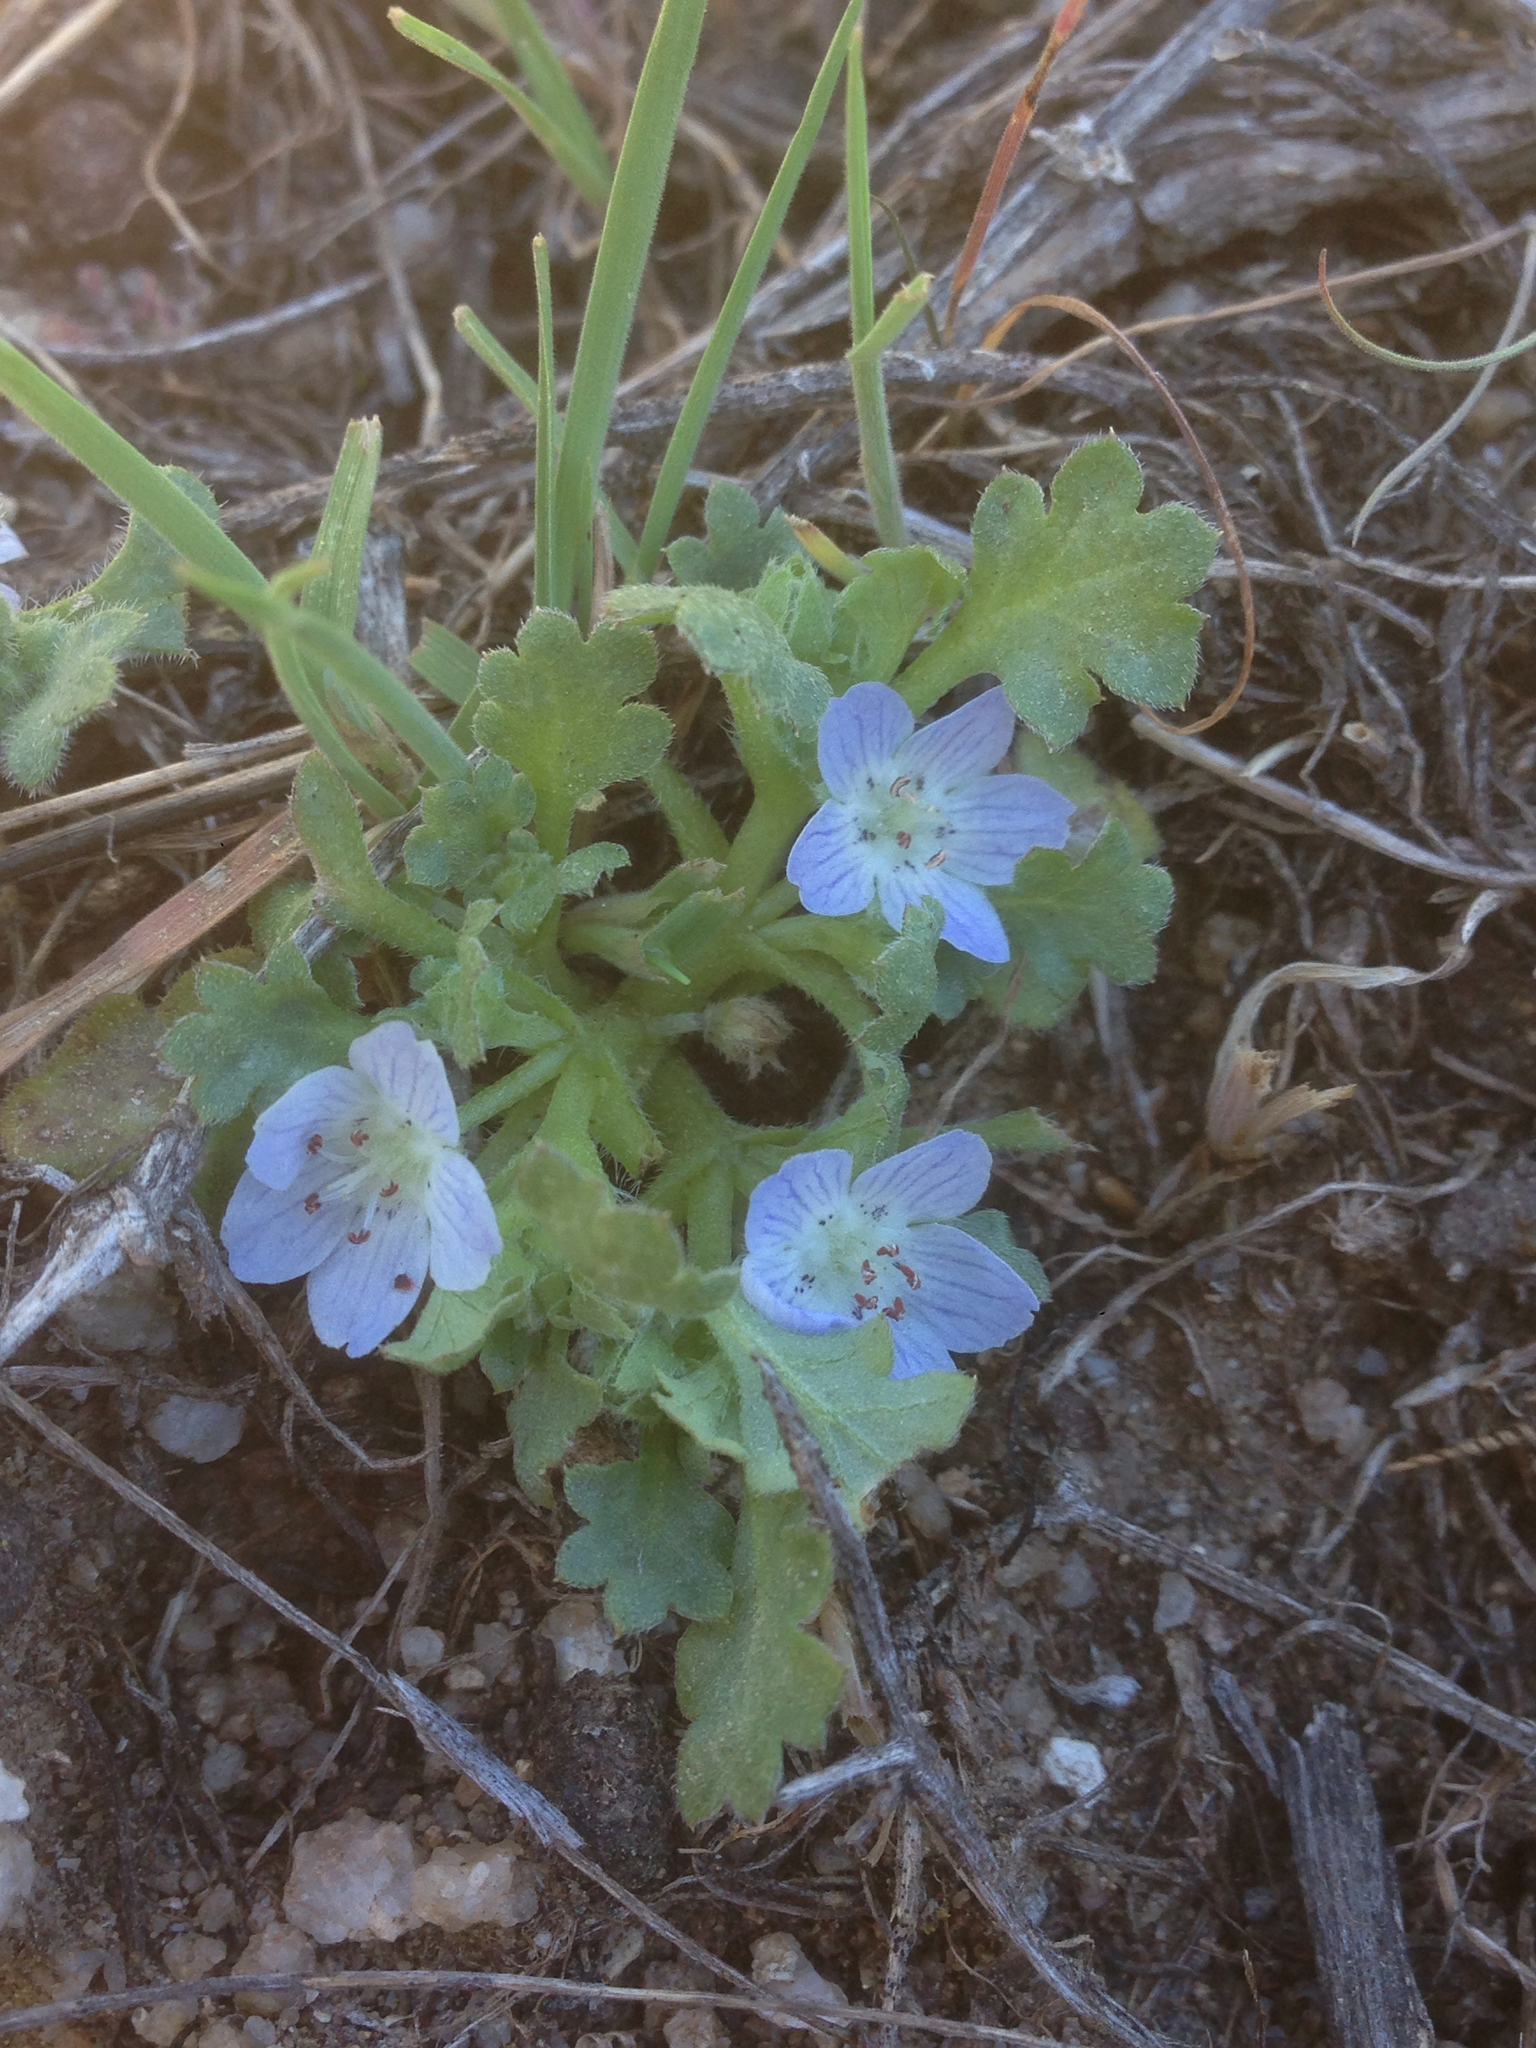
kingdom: Plantae
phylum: Tracheophyta
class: Magnoliopsida
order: Boraginales
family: Hydrophyllaceae
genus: Nemophila
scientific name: Nemophila menziesii
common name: Baby's-blue-eyes
